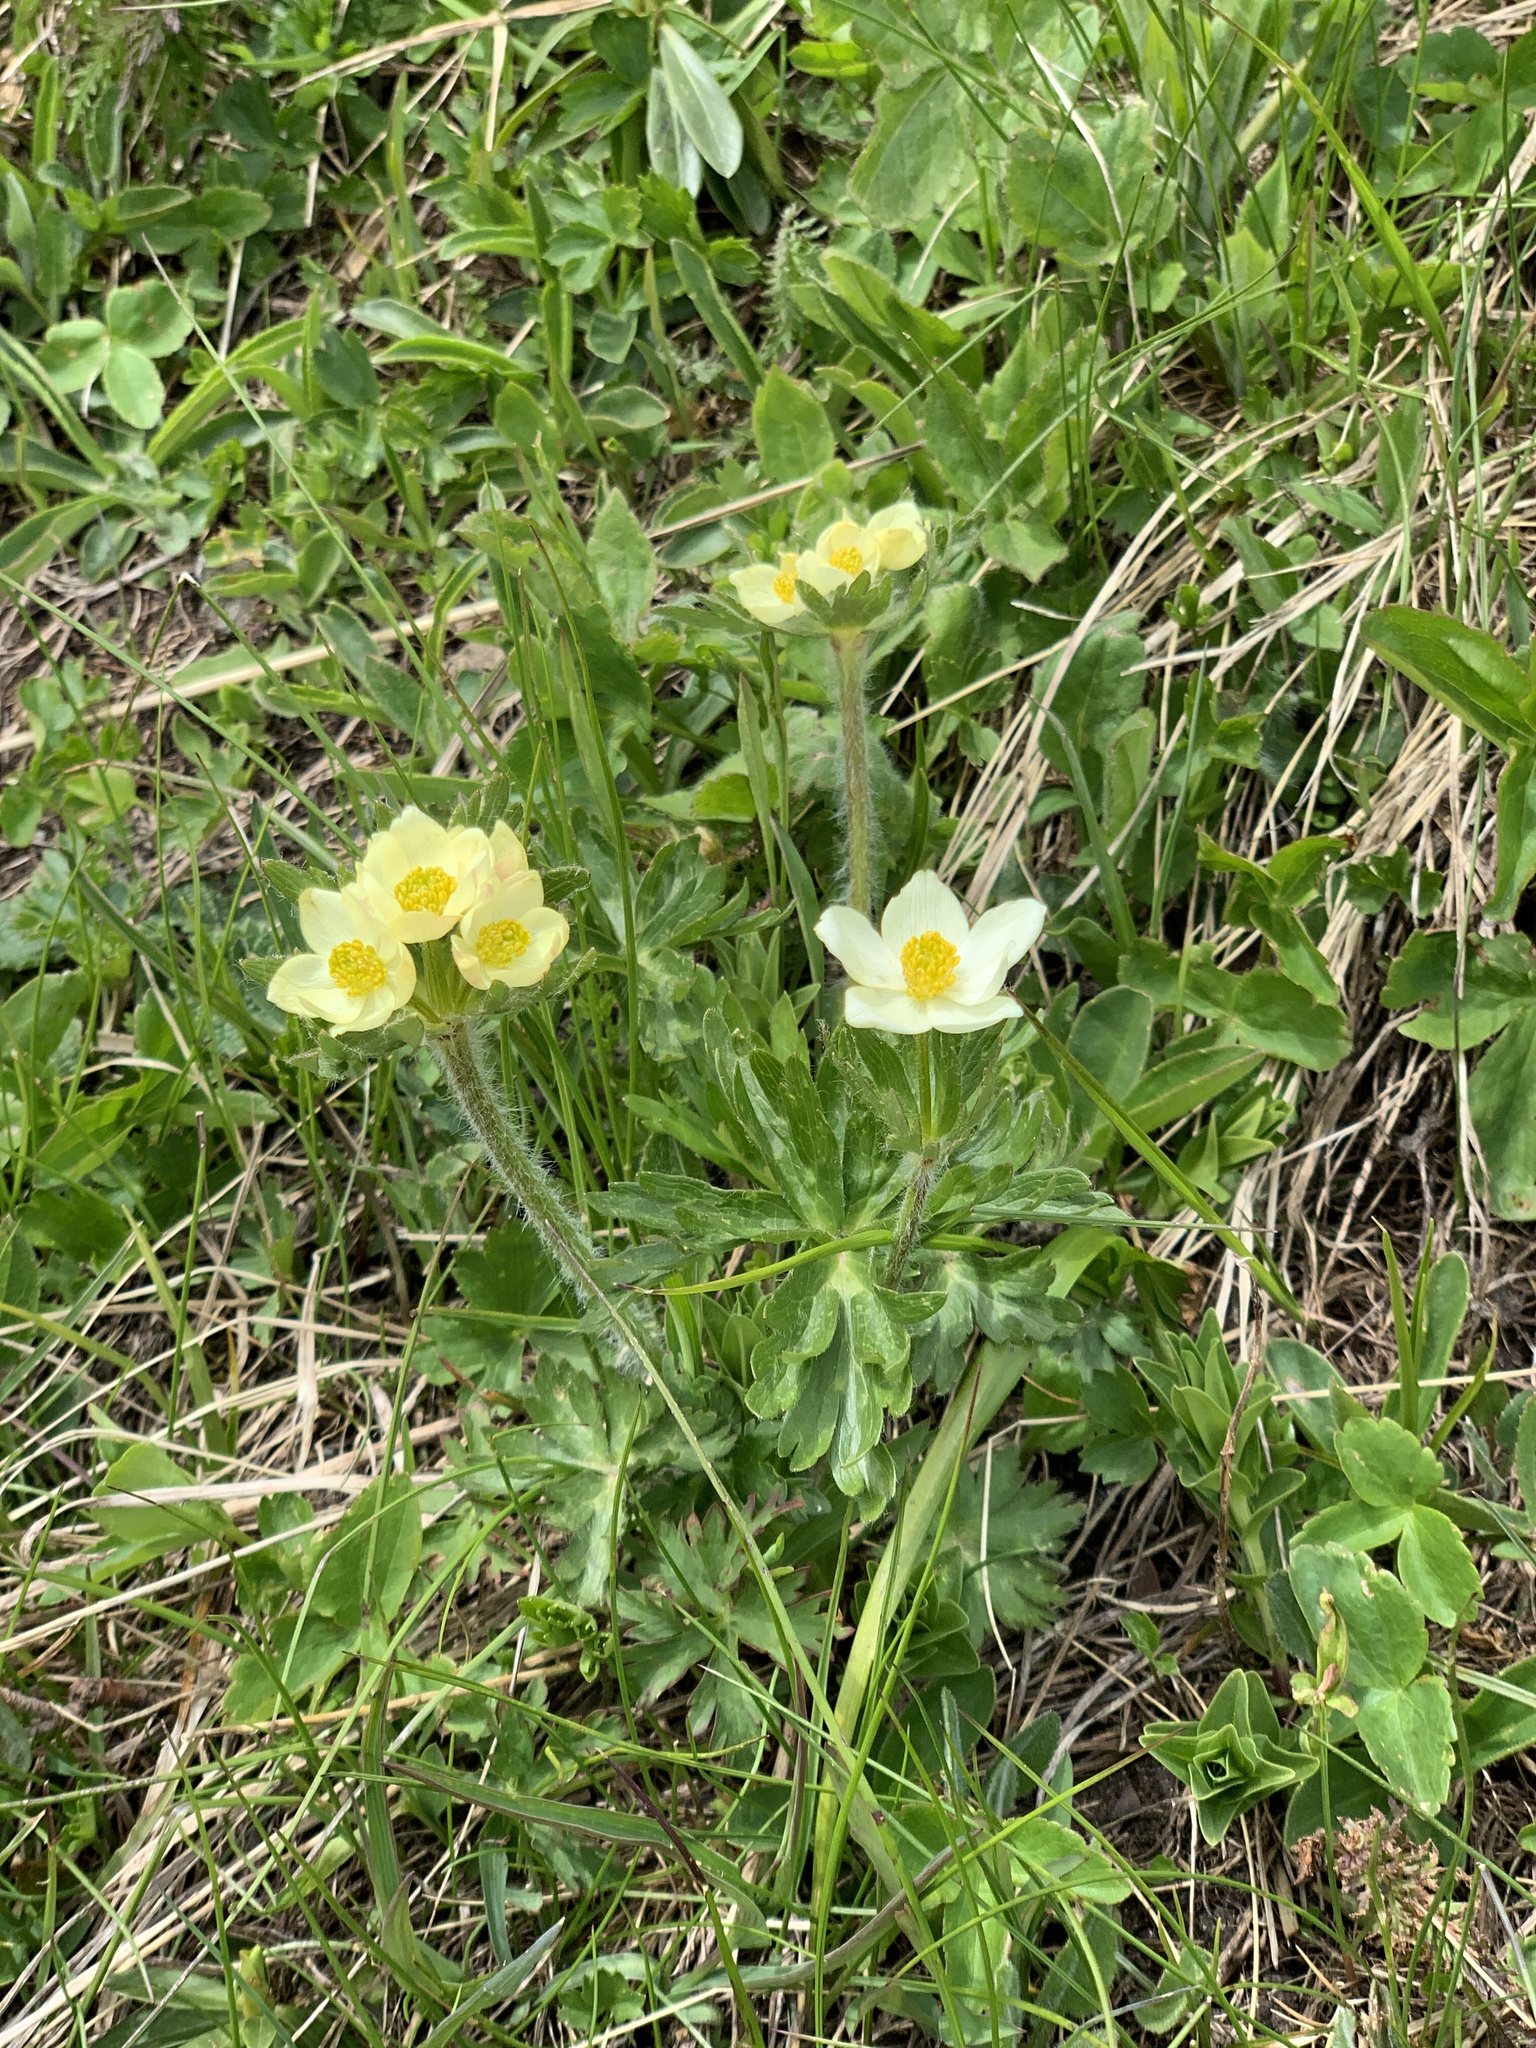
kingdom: Plantae
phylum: Tracheophyta
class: Magnoliopsida
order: Ranunculales
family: Ranunculaceae
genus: Pulsatilla
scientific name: Pulsatilla albana
